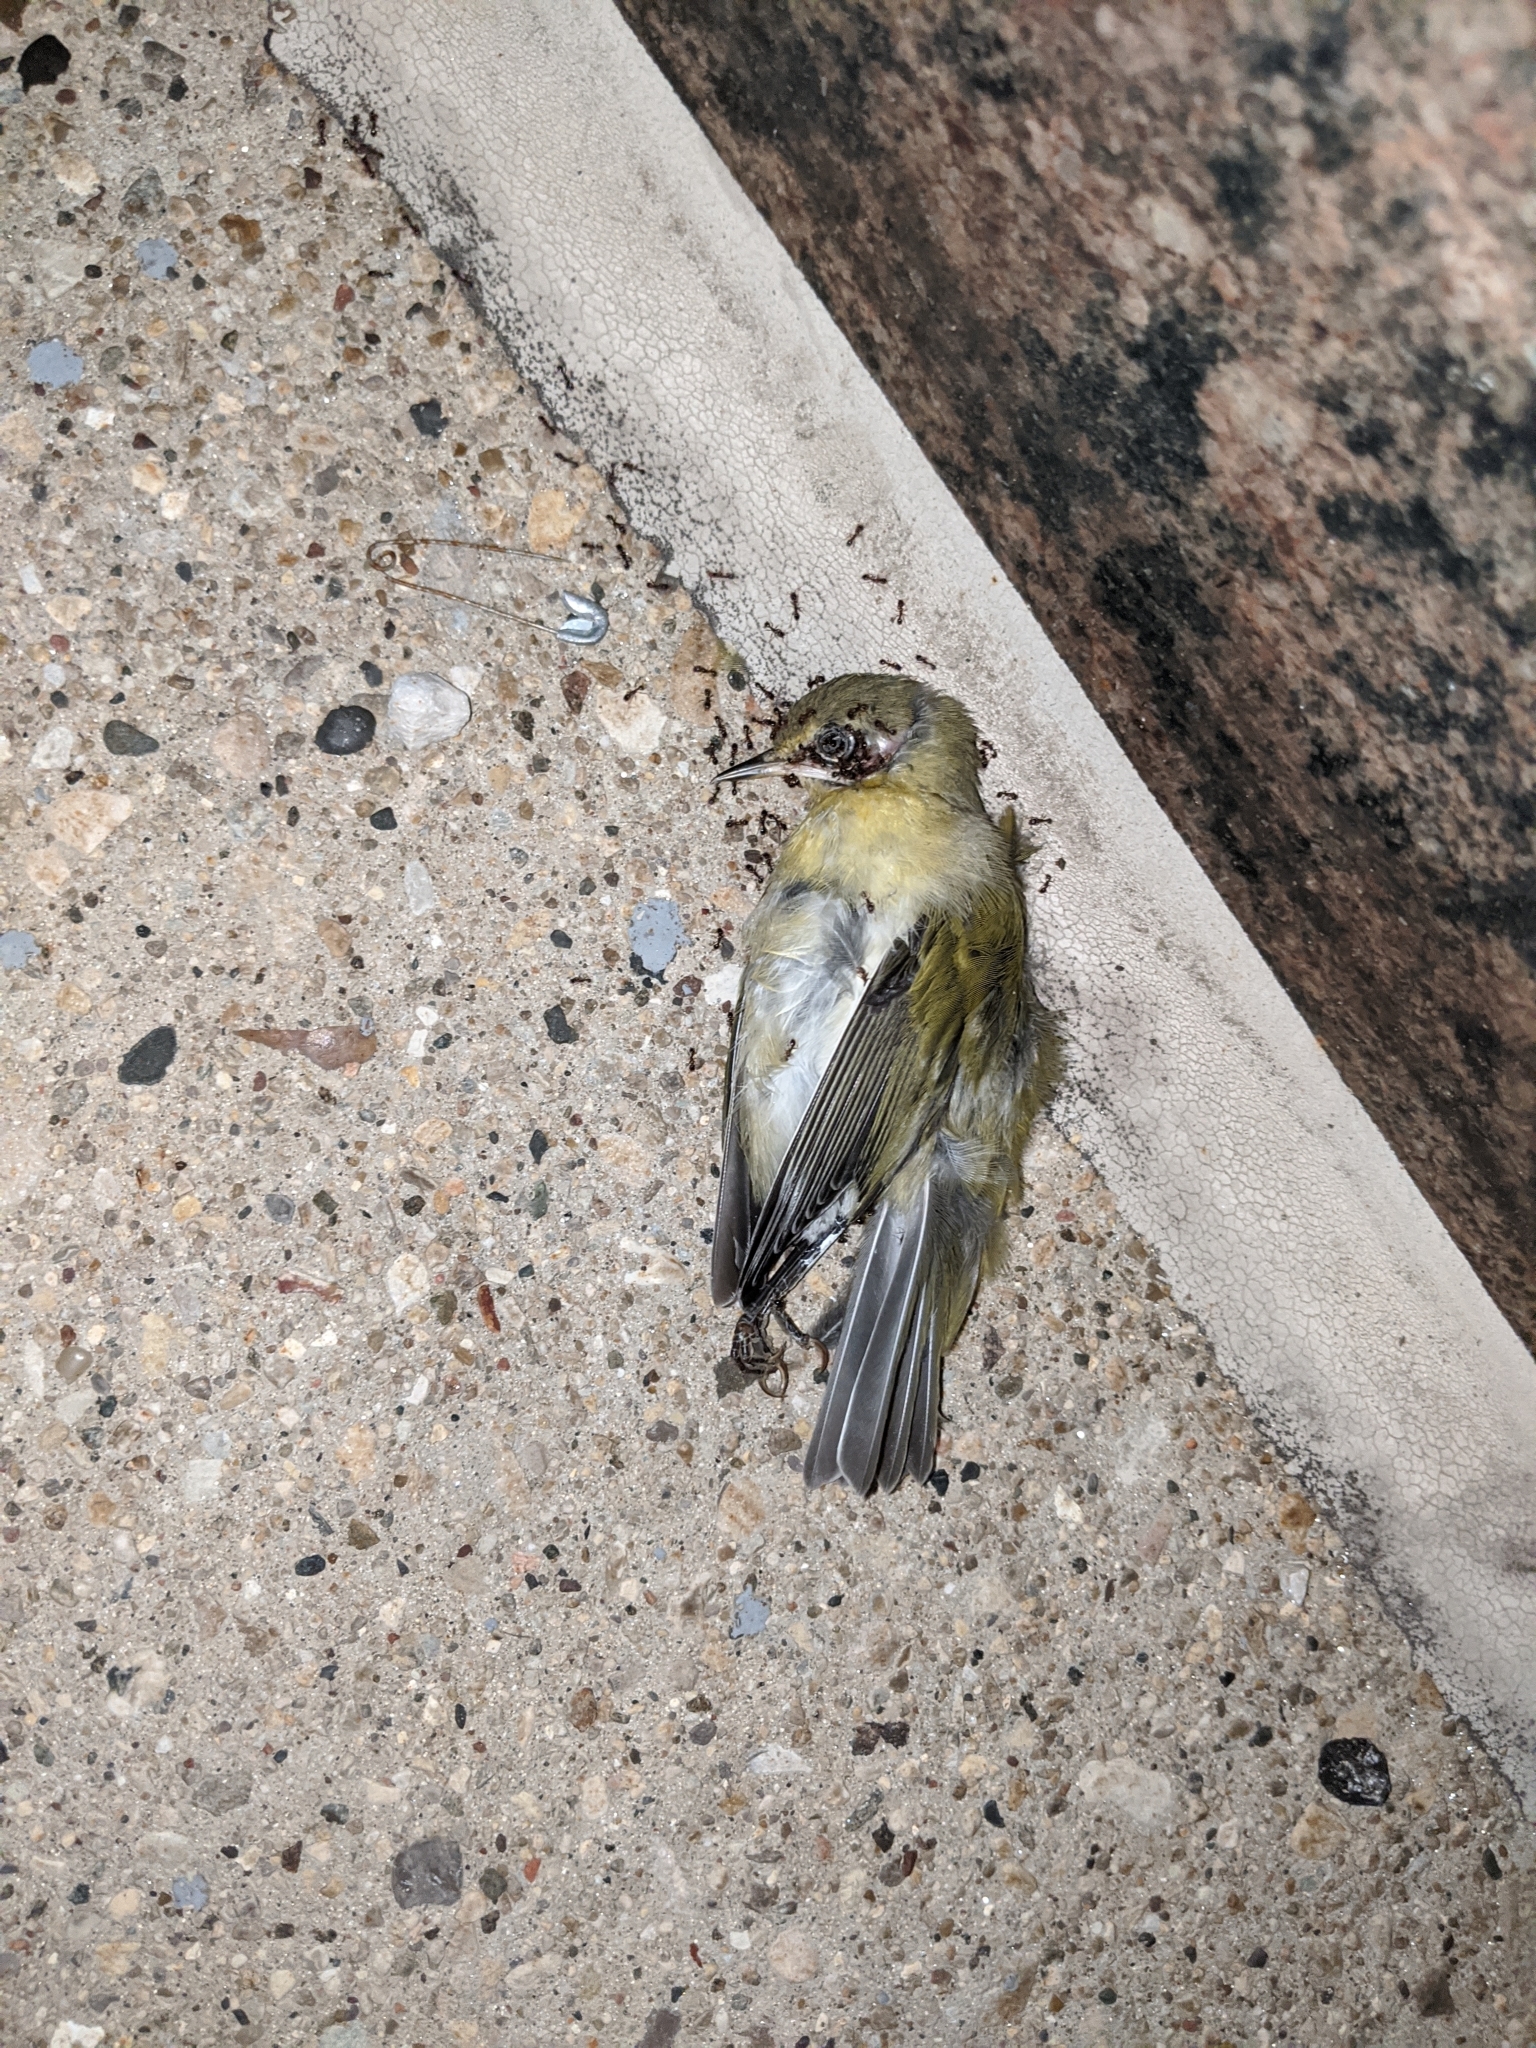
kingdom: Animalia
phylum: Chordata
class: Aves
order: Passeriformes
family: Parulidae
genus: Leiothlypis
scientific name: Leiothlypis peregrina
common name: Tennessee warbler
